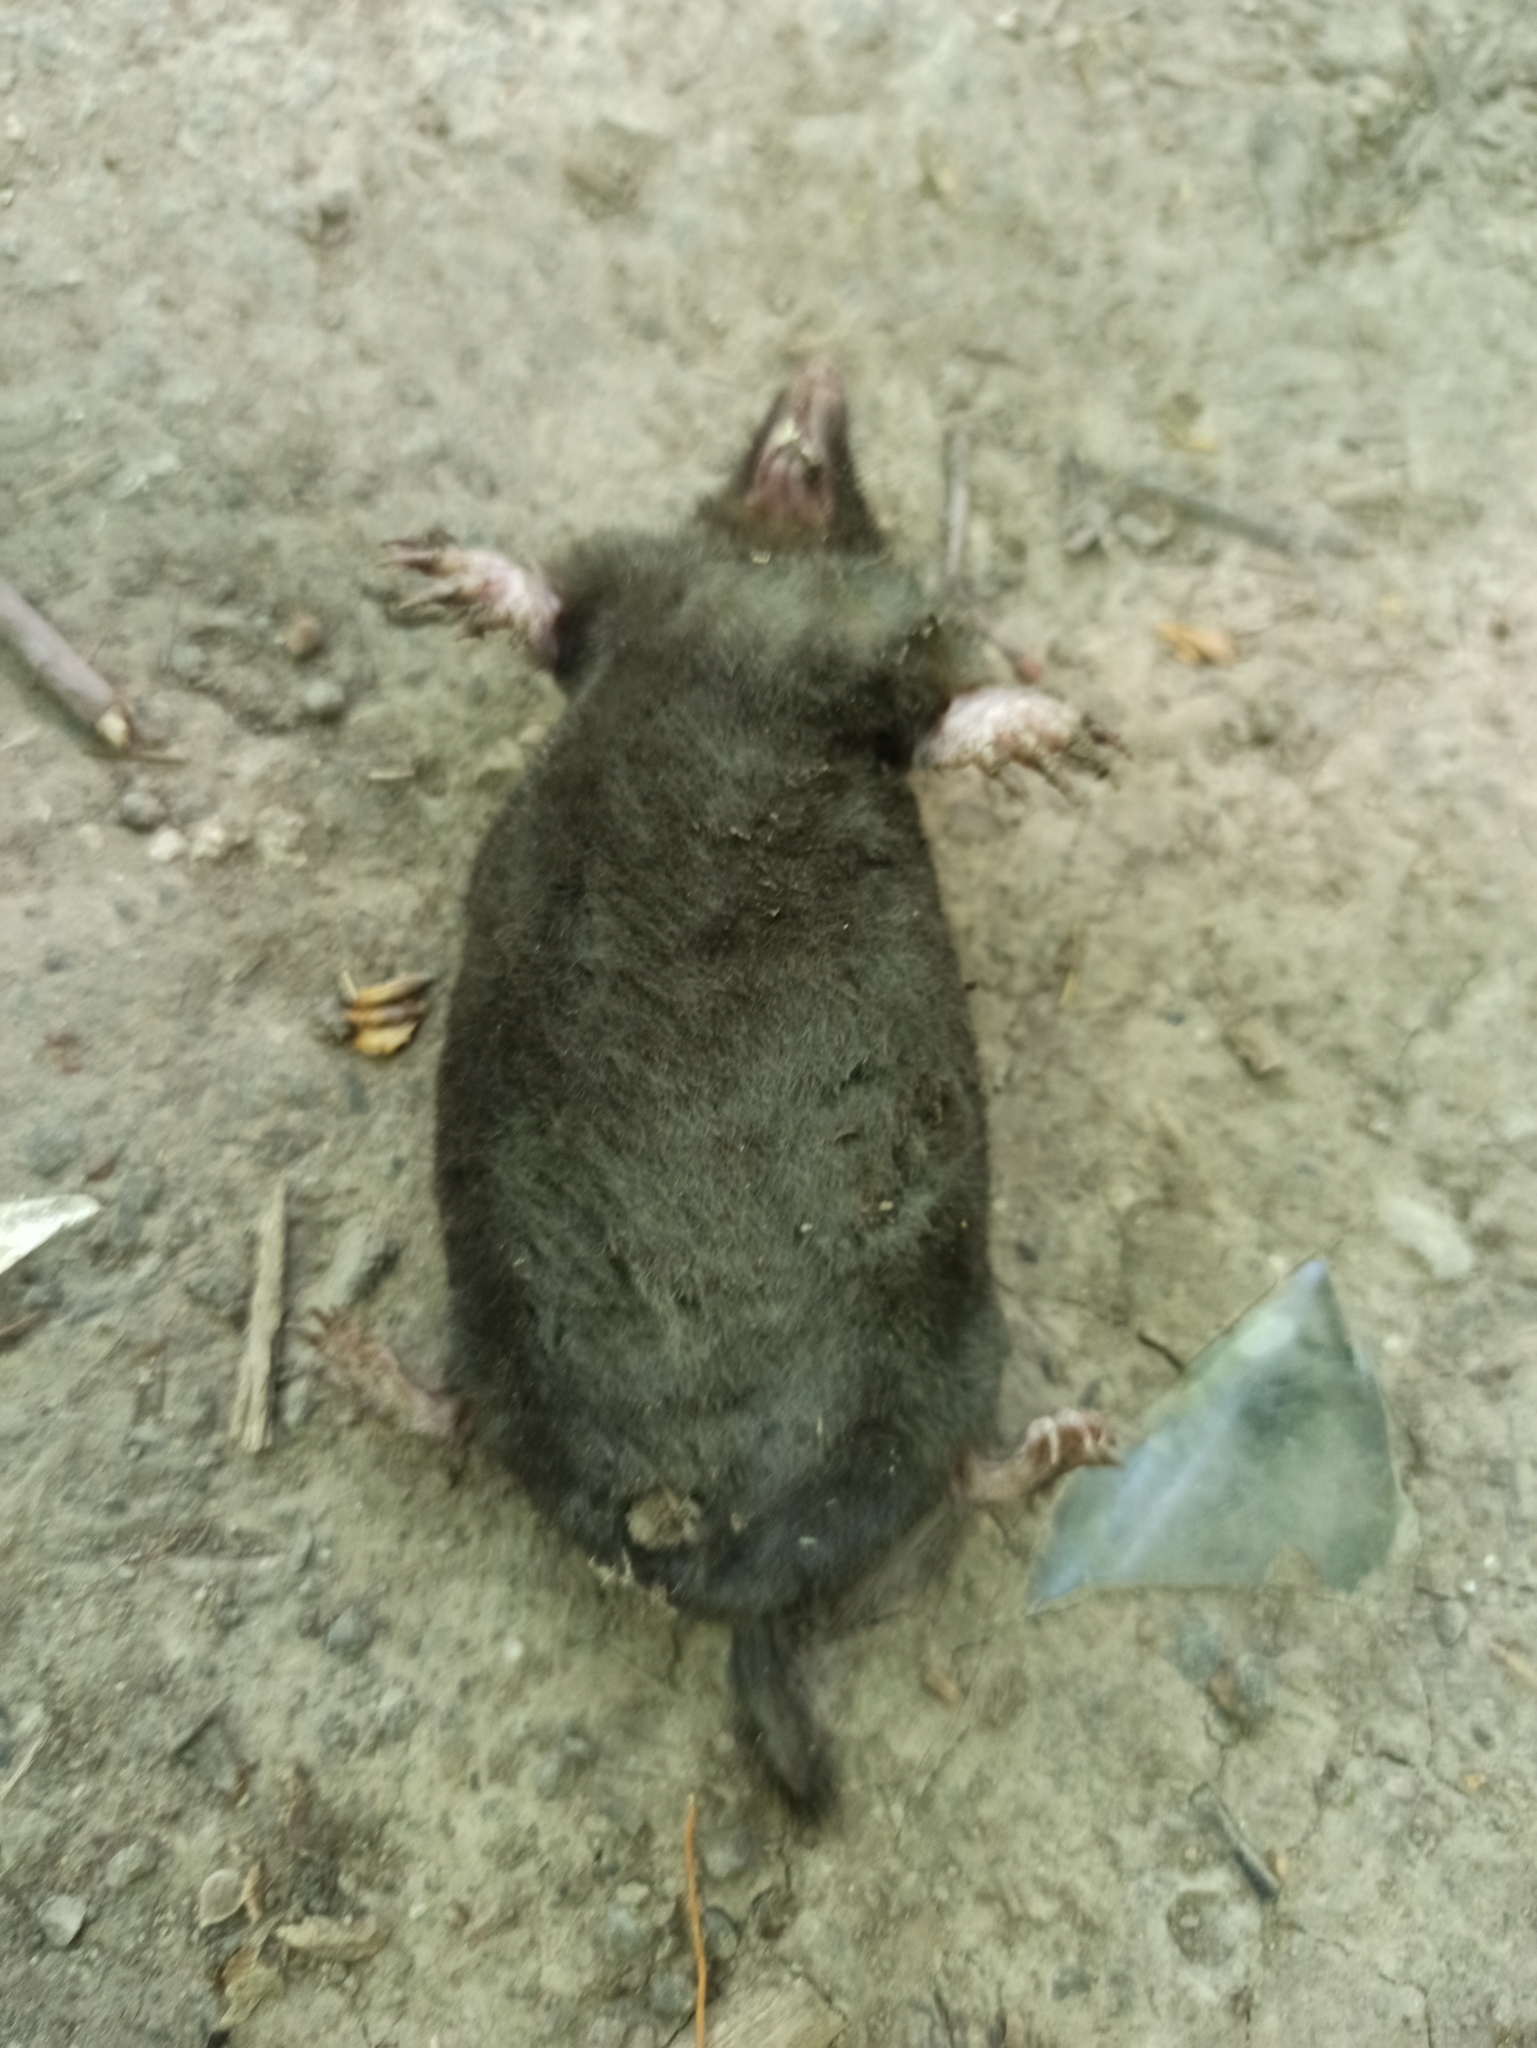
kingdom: Animalia
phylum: Chordata
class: Mammalia
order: Soricomorpha
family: Talpidae
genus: Talpa
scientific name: Talpa europaea
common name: European mole
